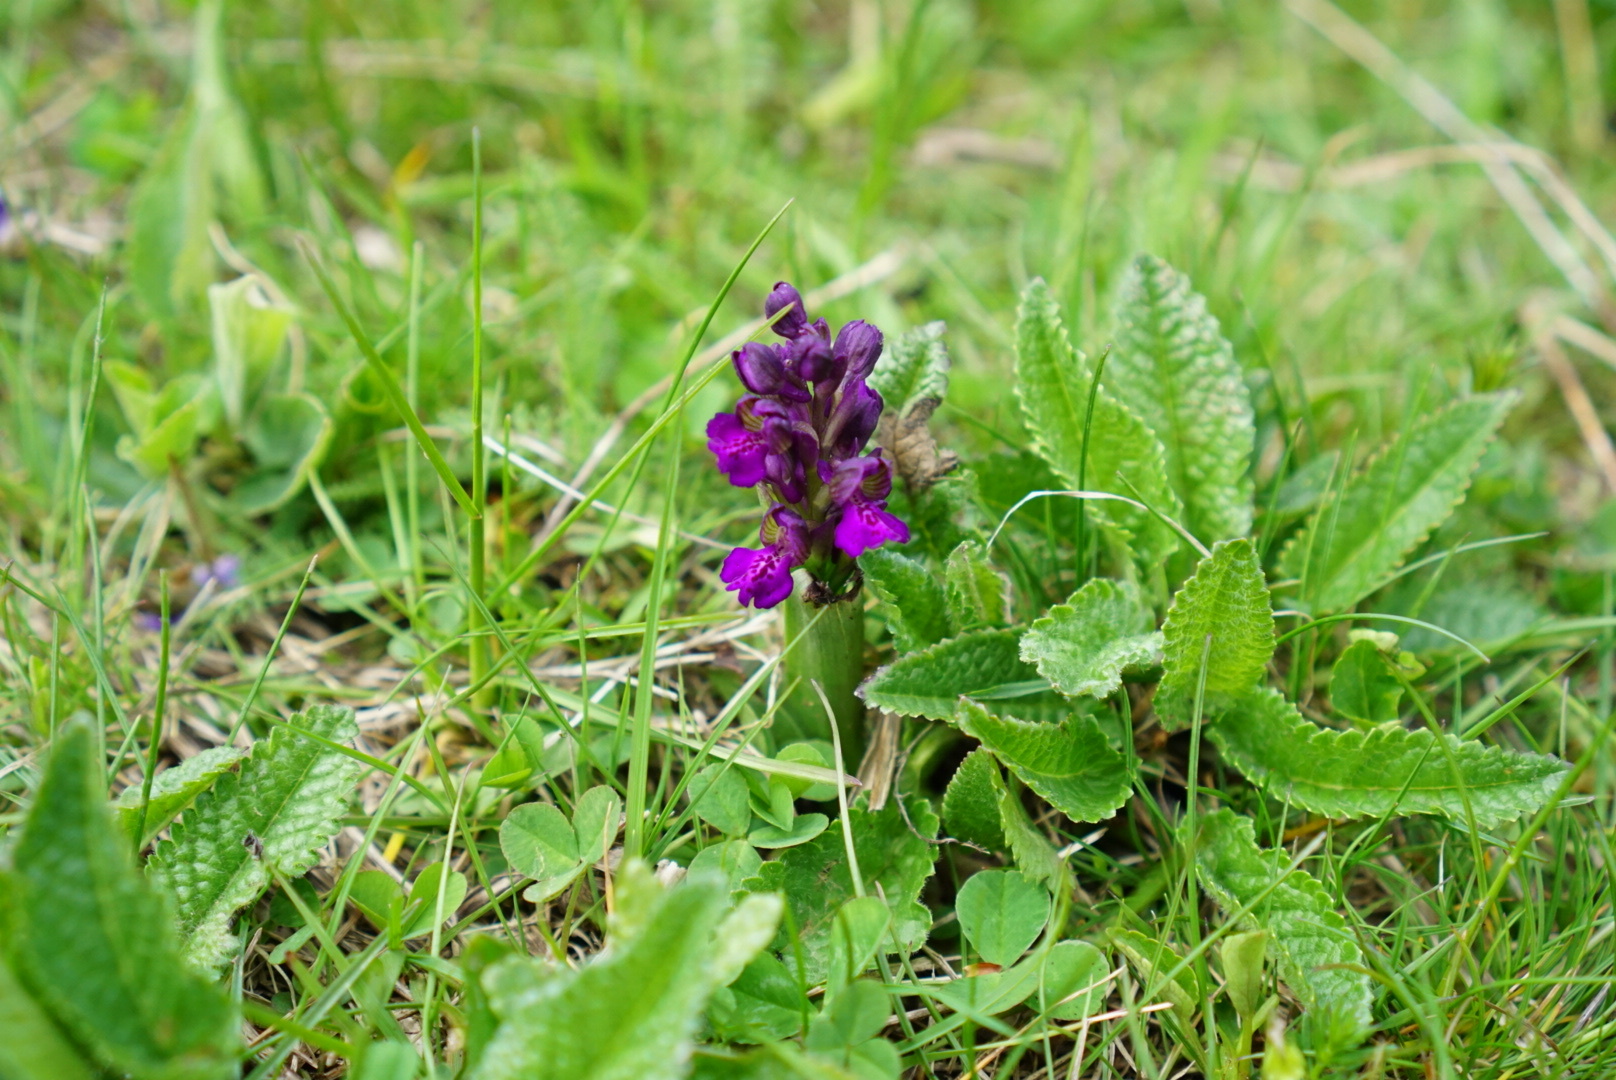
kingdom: Plantae
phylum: Tracheophyta
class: Liliopsida
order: Asparagales
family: Orchidaceae
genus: Anacamptis
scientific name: Anacamptis morio
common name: Green-winged orchid
